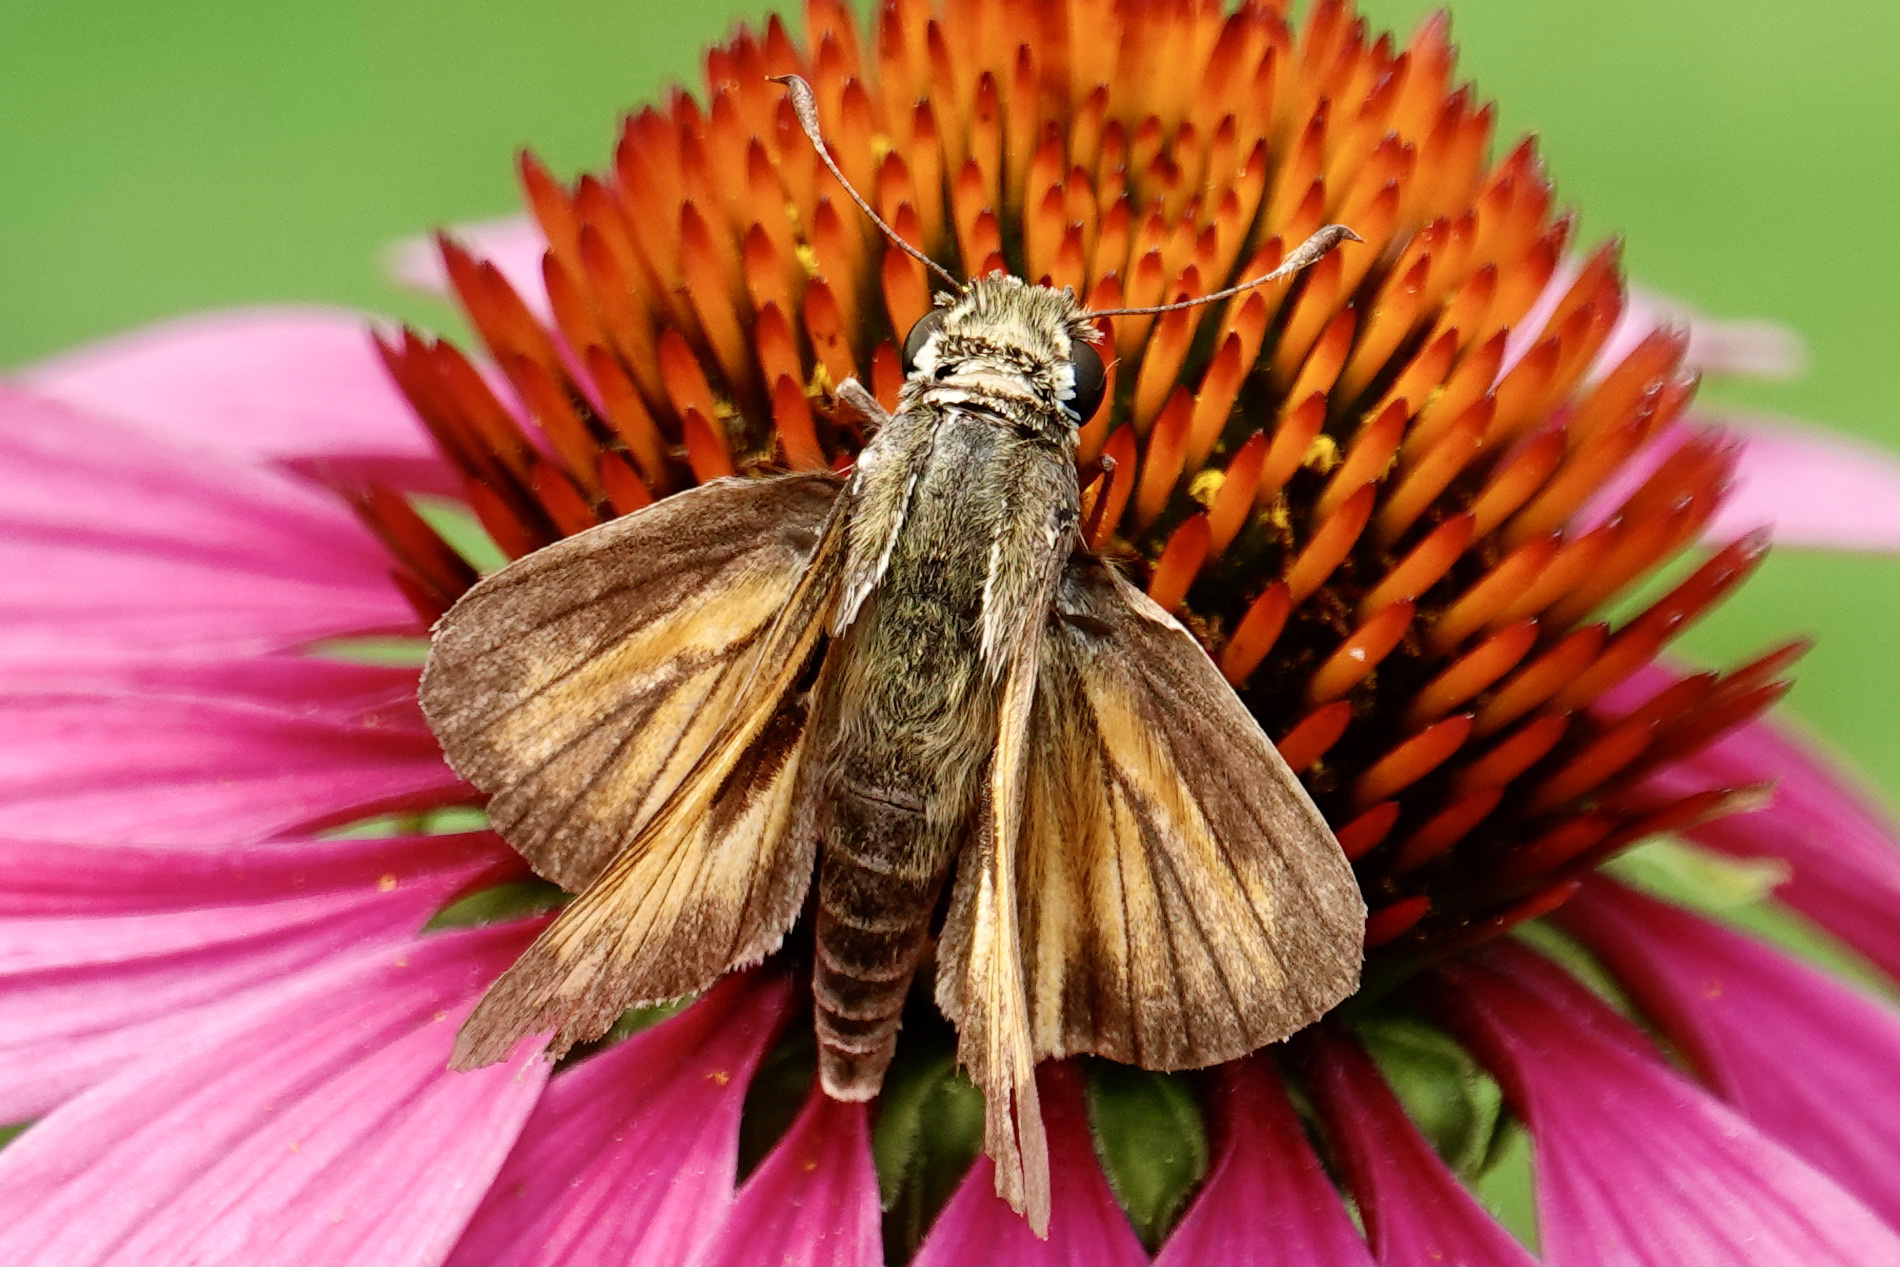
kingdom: Animalia
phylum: Arthropoda
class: Insecta
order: Lepidoptera
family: Hesperiidae
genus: Atalopedes
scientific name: Atalopedes
